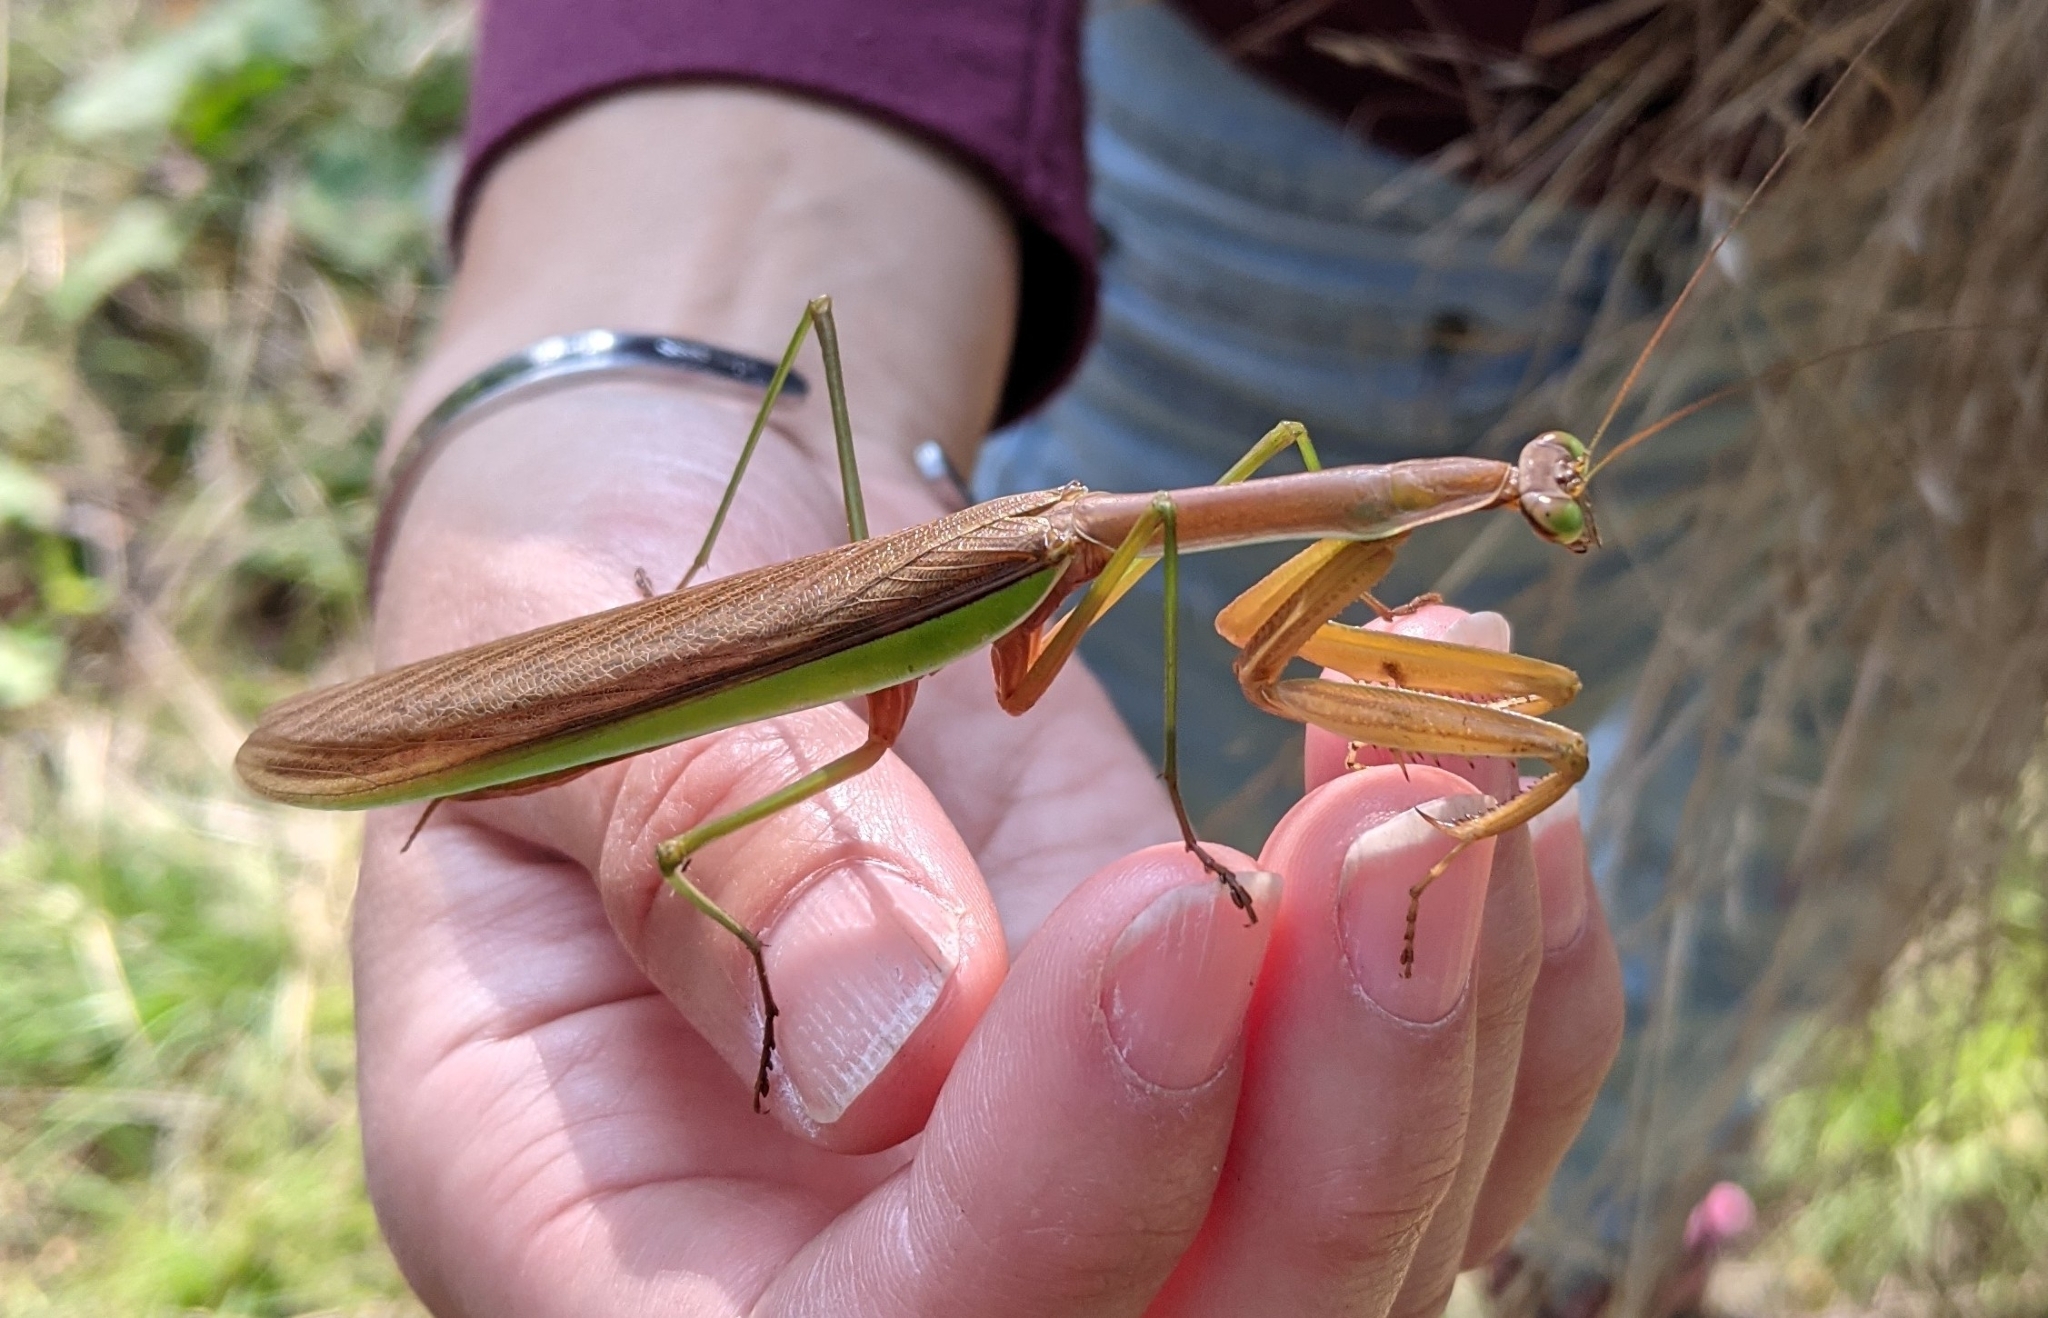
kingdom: Animalia
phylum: Arthropoda
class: Insecta
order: Mantodea
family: Mantidae
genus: Tenodera
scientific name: Tenodera sinensis
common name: Chinese mantis
